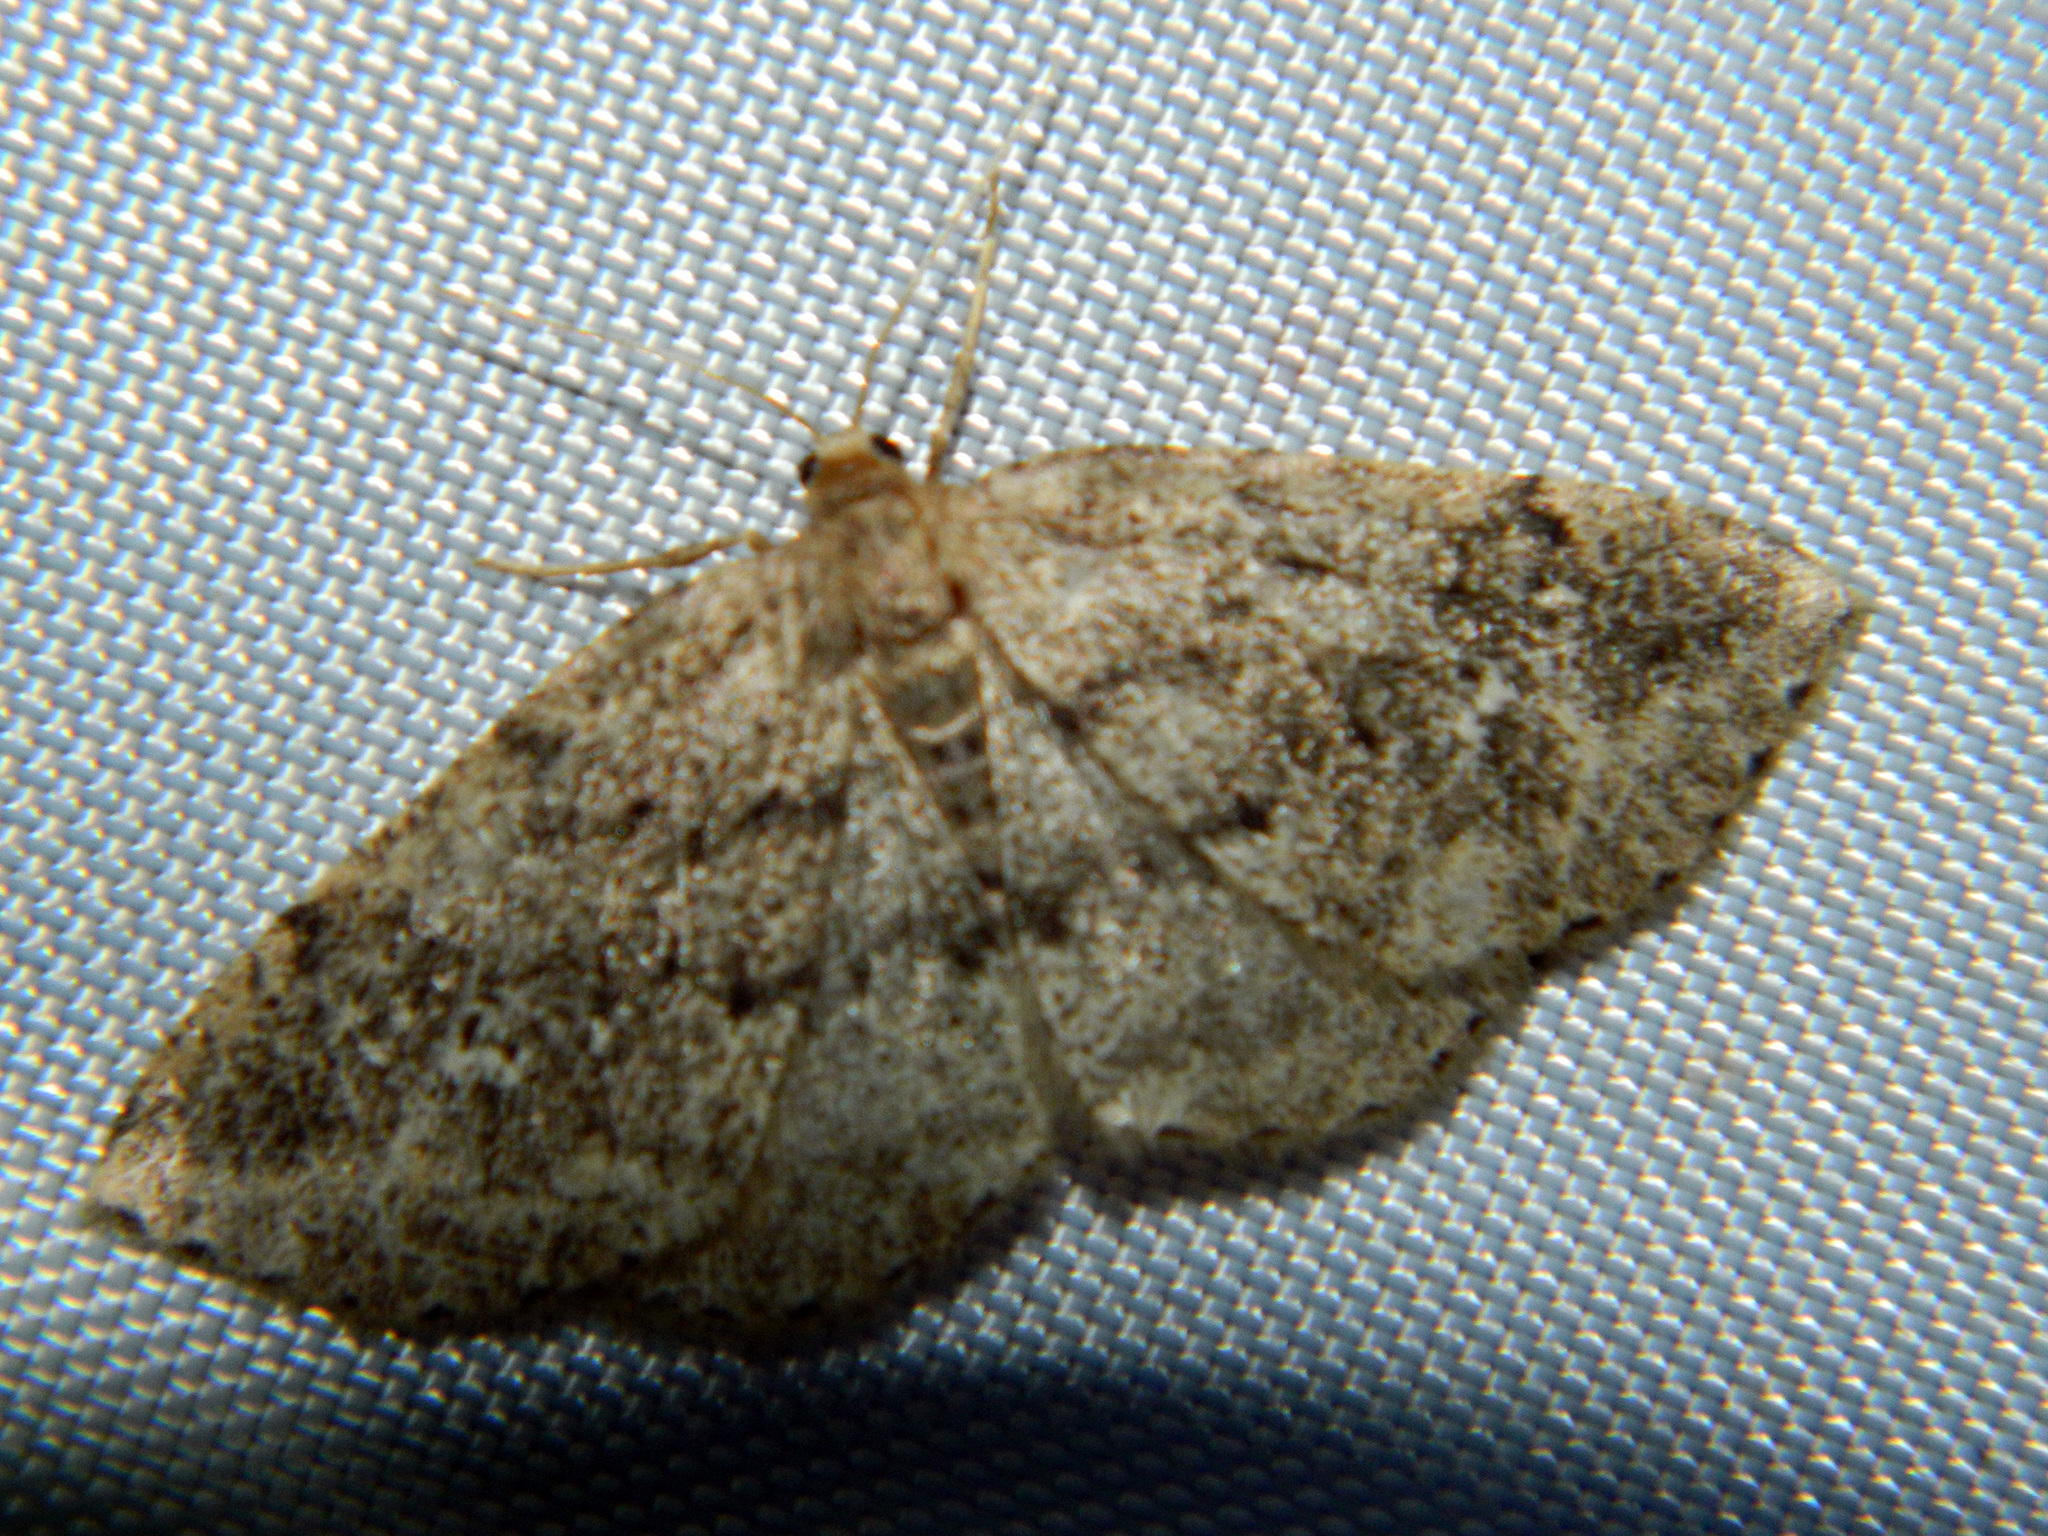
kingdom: Animalia
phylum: Arthropoda
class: Insecta
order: Lepidoptera
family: Geometridae
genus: Homochlodes
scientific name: Homochlodes fritillaria
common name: Pale homochlodes
